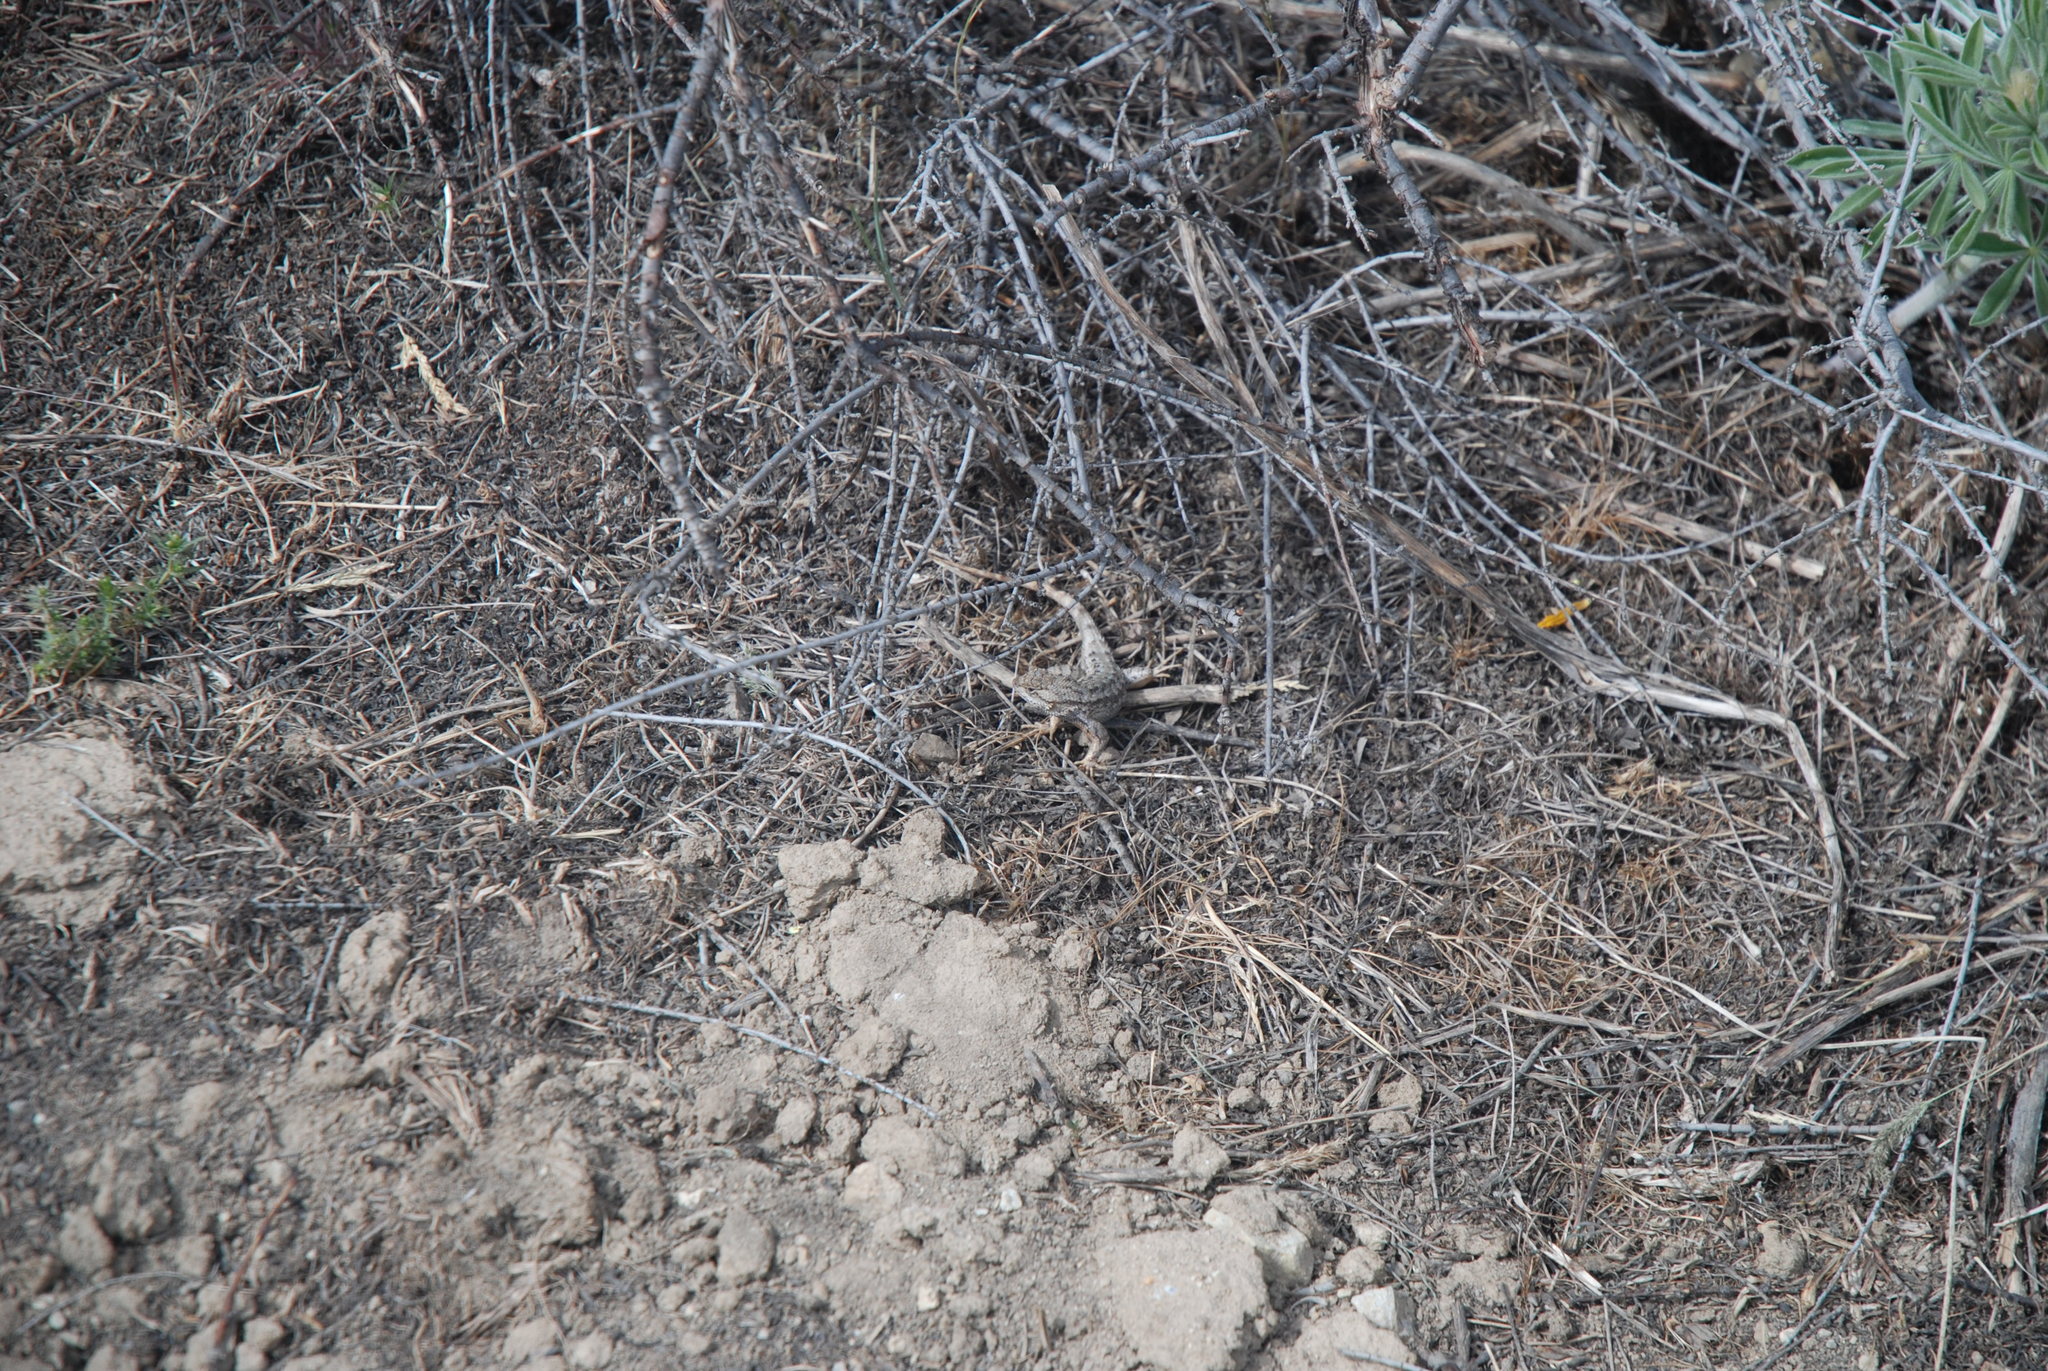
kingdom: Animalia
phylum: Chordata
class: Squamata
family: Phrynosomatidae
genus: Sceloporus
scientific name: Sceloporus occidentalis
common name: Western fence lizard
